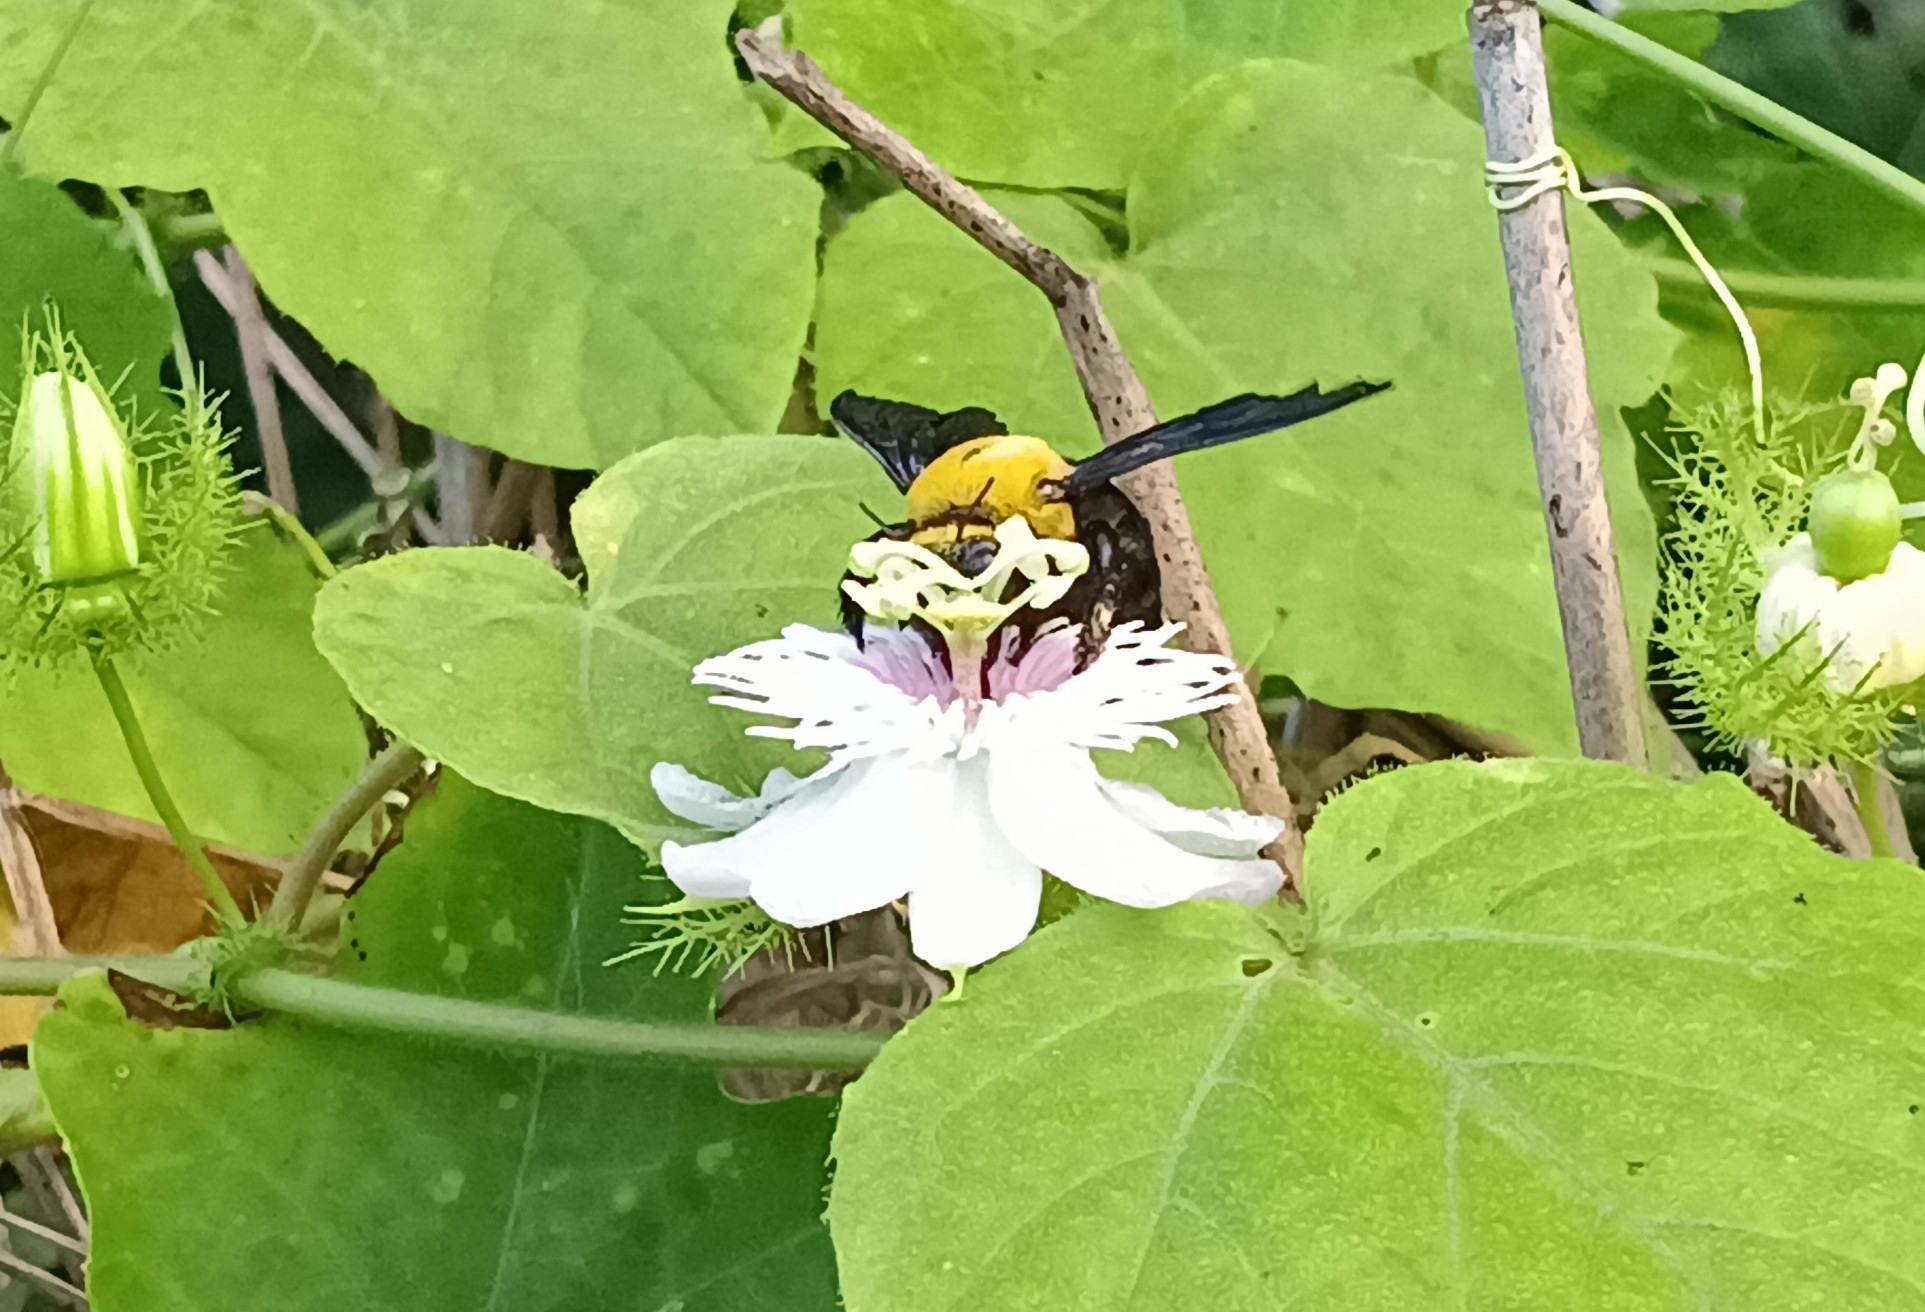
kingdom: Animalia
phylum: Arthropoda
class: Insecta
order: Hymenoptera
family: Apidae
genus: Xylocopa
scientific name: Xylocopa ruficornis
